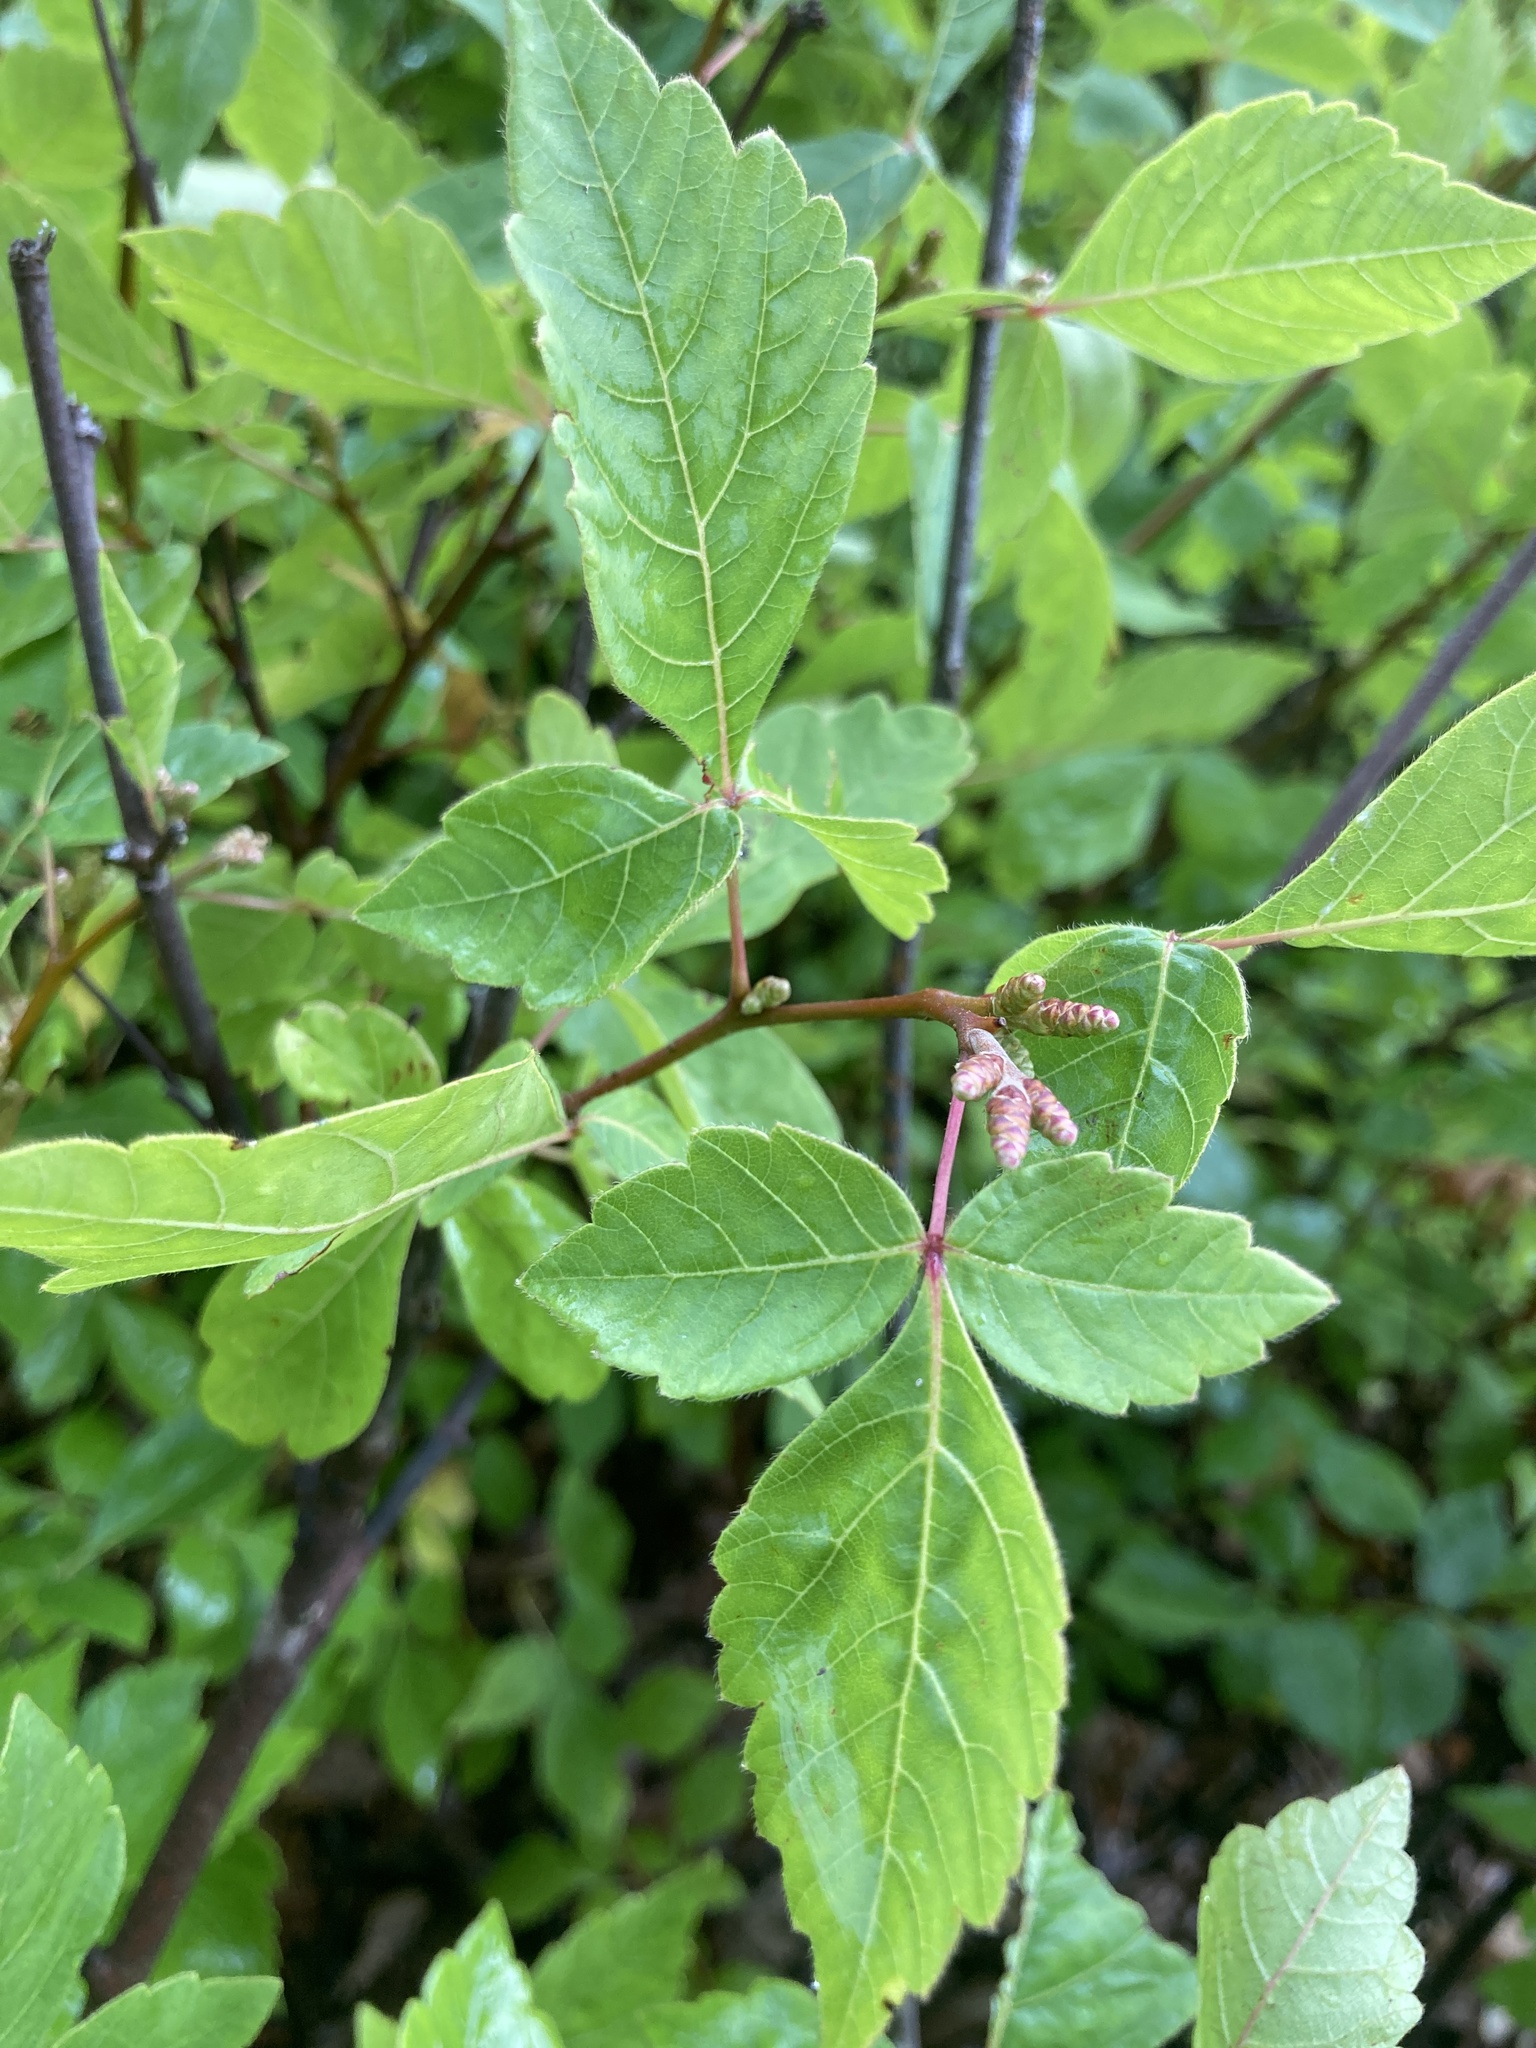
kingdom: Plantae
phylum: Tracheophyta
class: Magnoliopsida
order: Sapindales
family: Anacardiaceae
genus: Rhus
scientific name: Rhus aromatica
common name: Aromatic sumac
